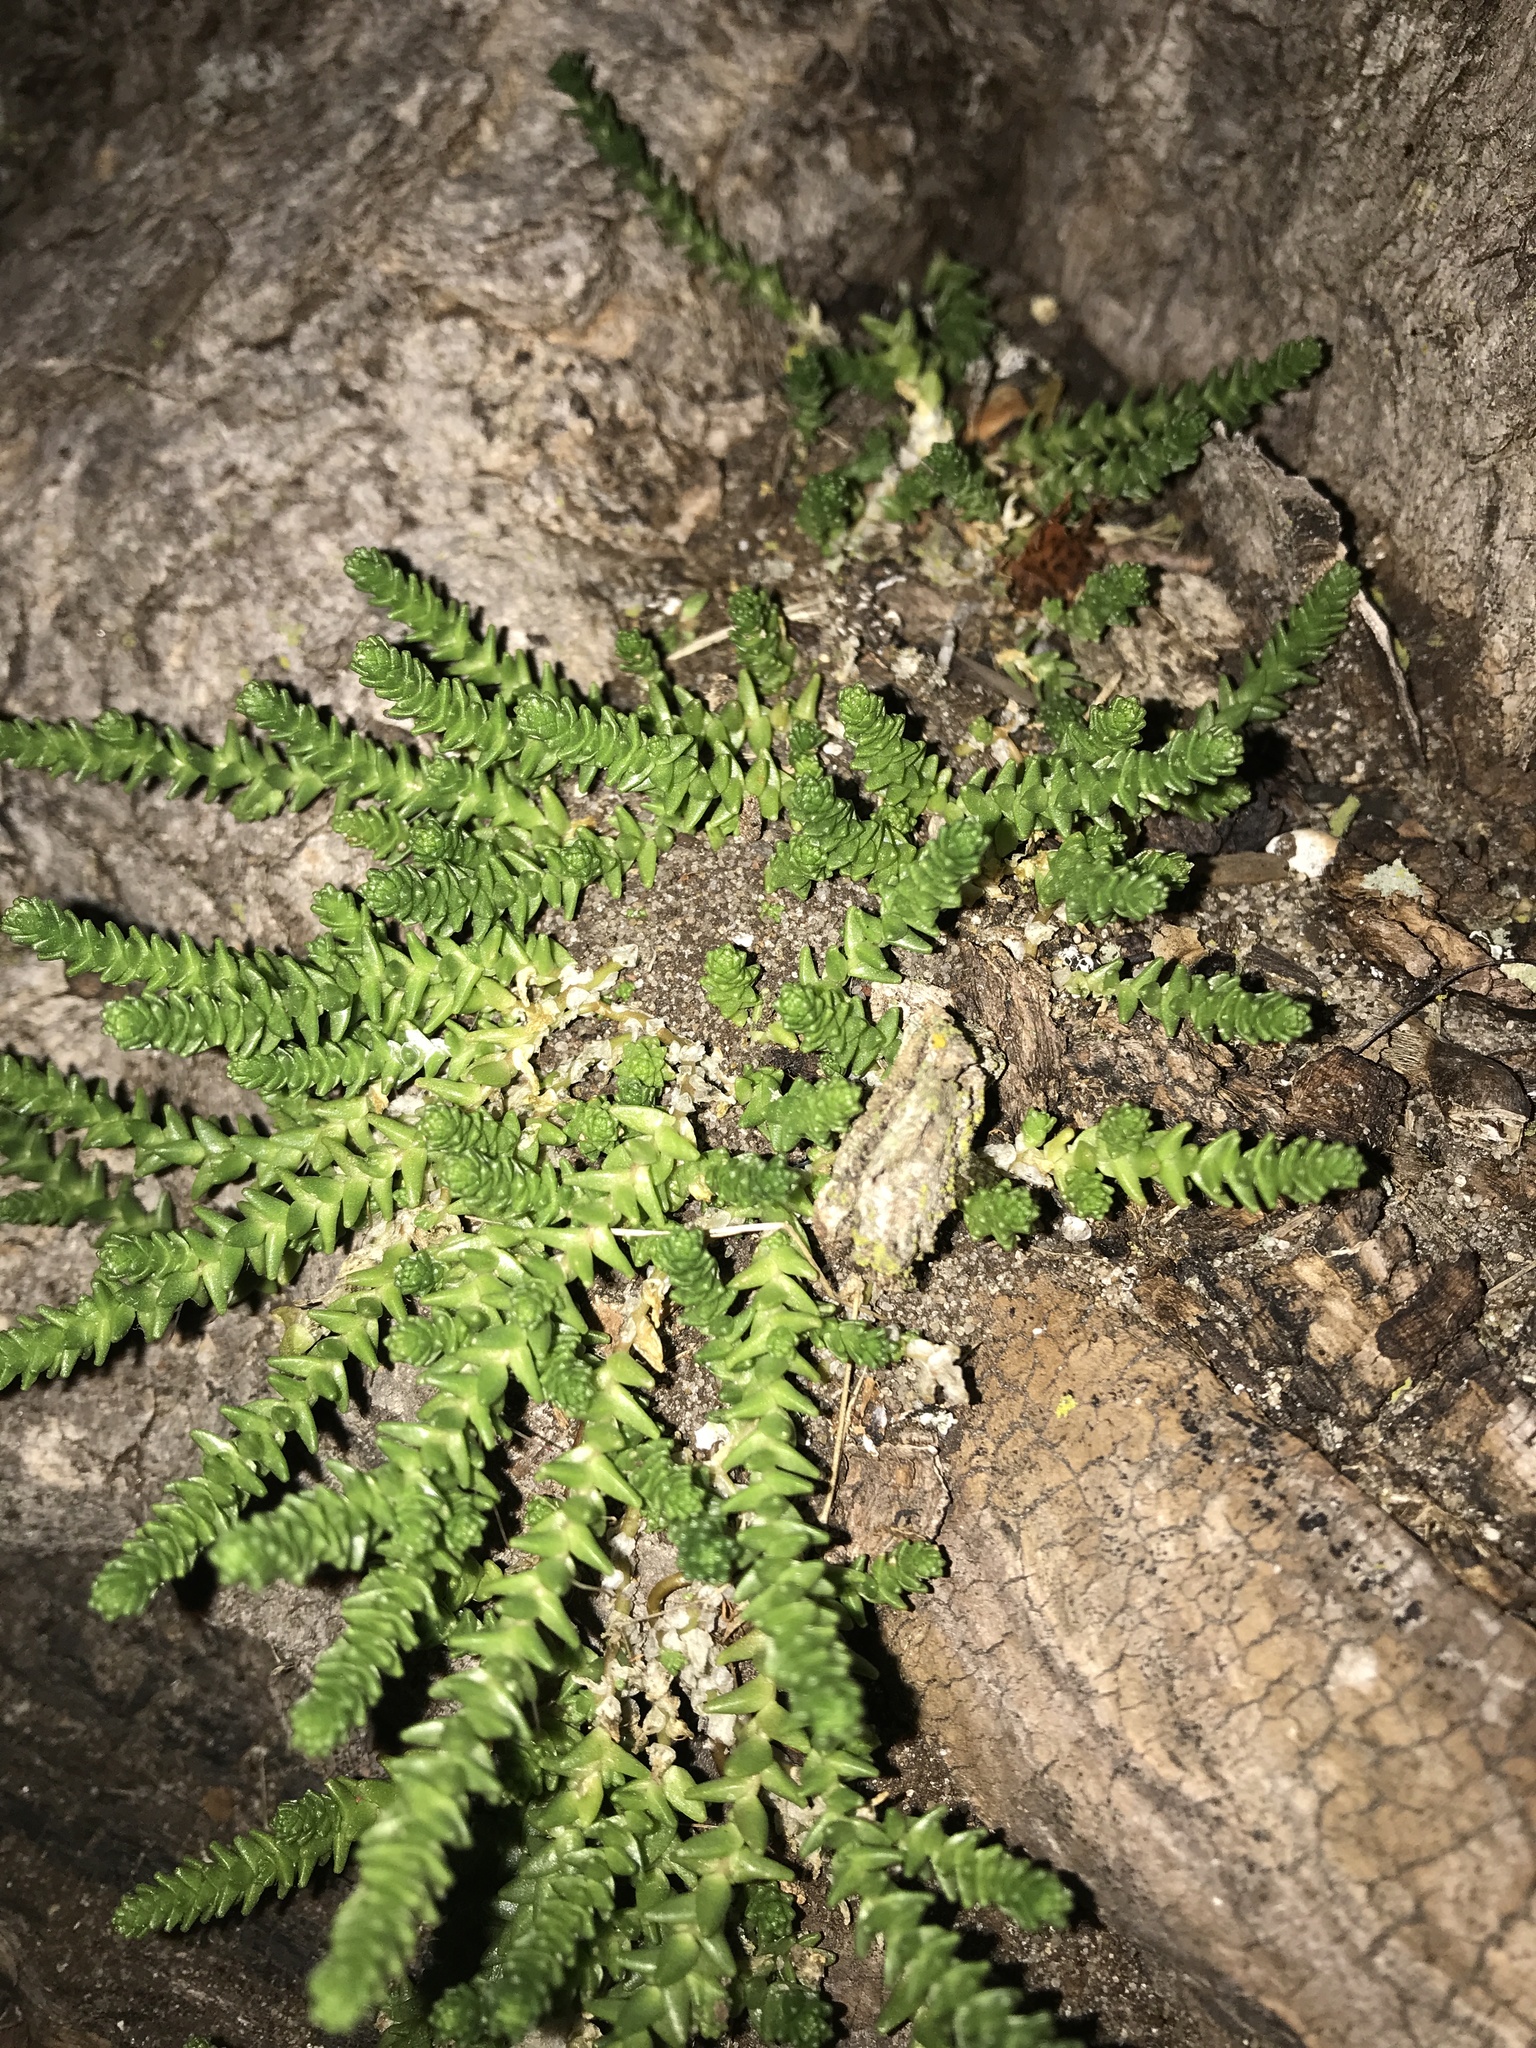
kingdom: Plantae
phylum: Tracheophyta
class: Magnoliopsida
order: Saxifragales
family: Crassulaceae
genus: Sedum
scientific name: Sedum acre
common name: Biting stonecrop
